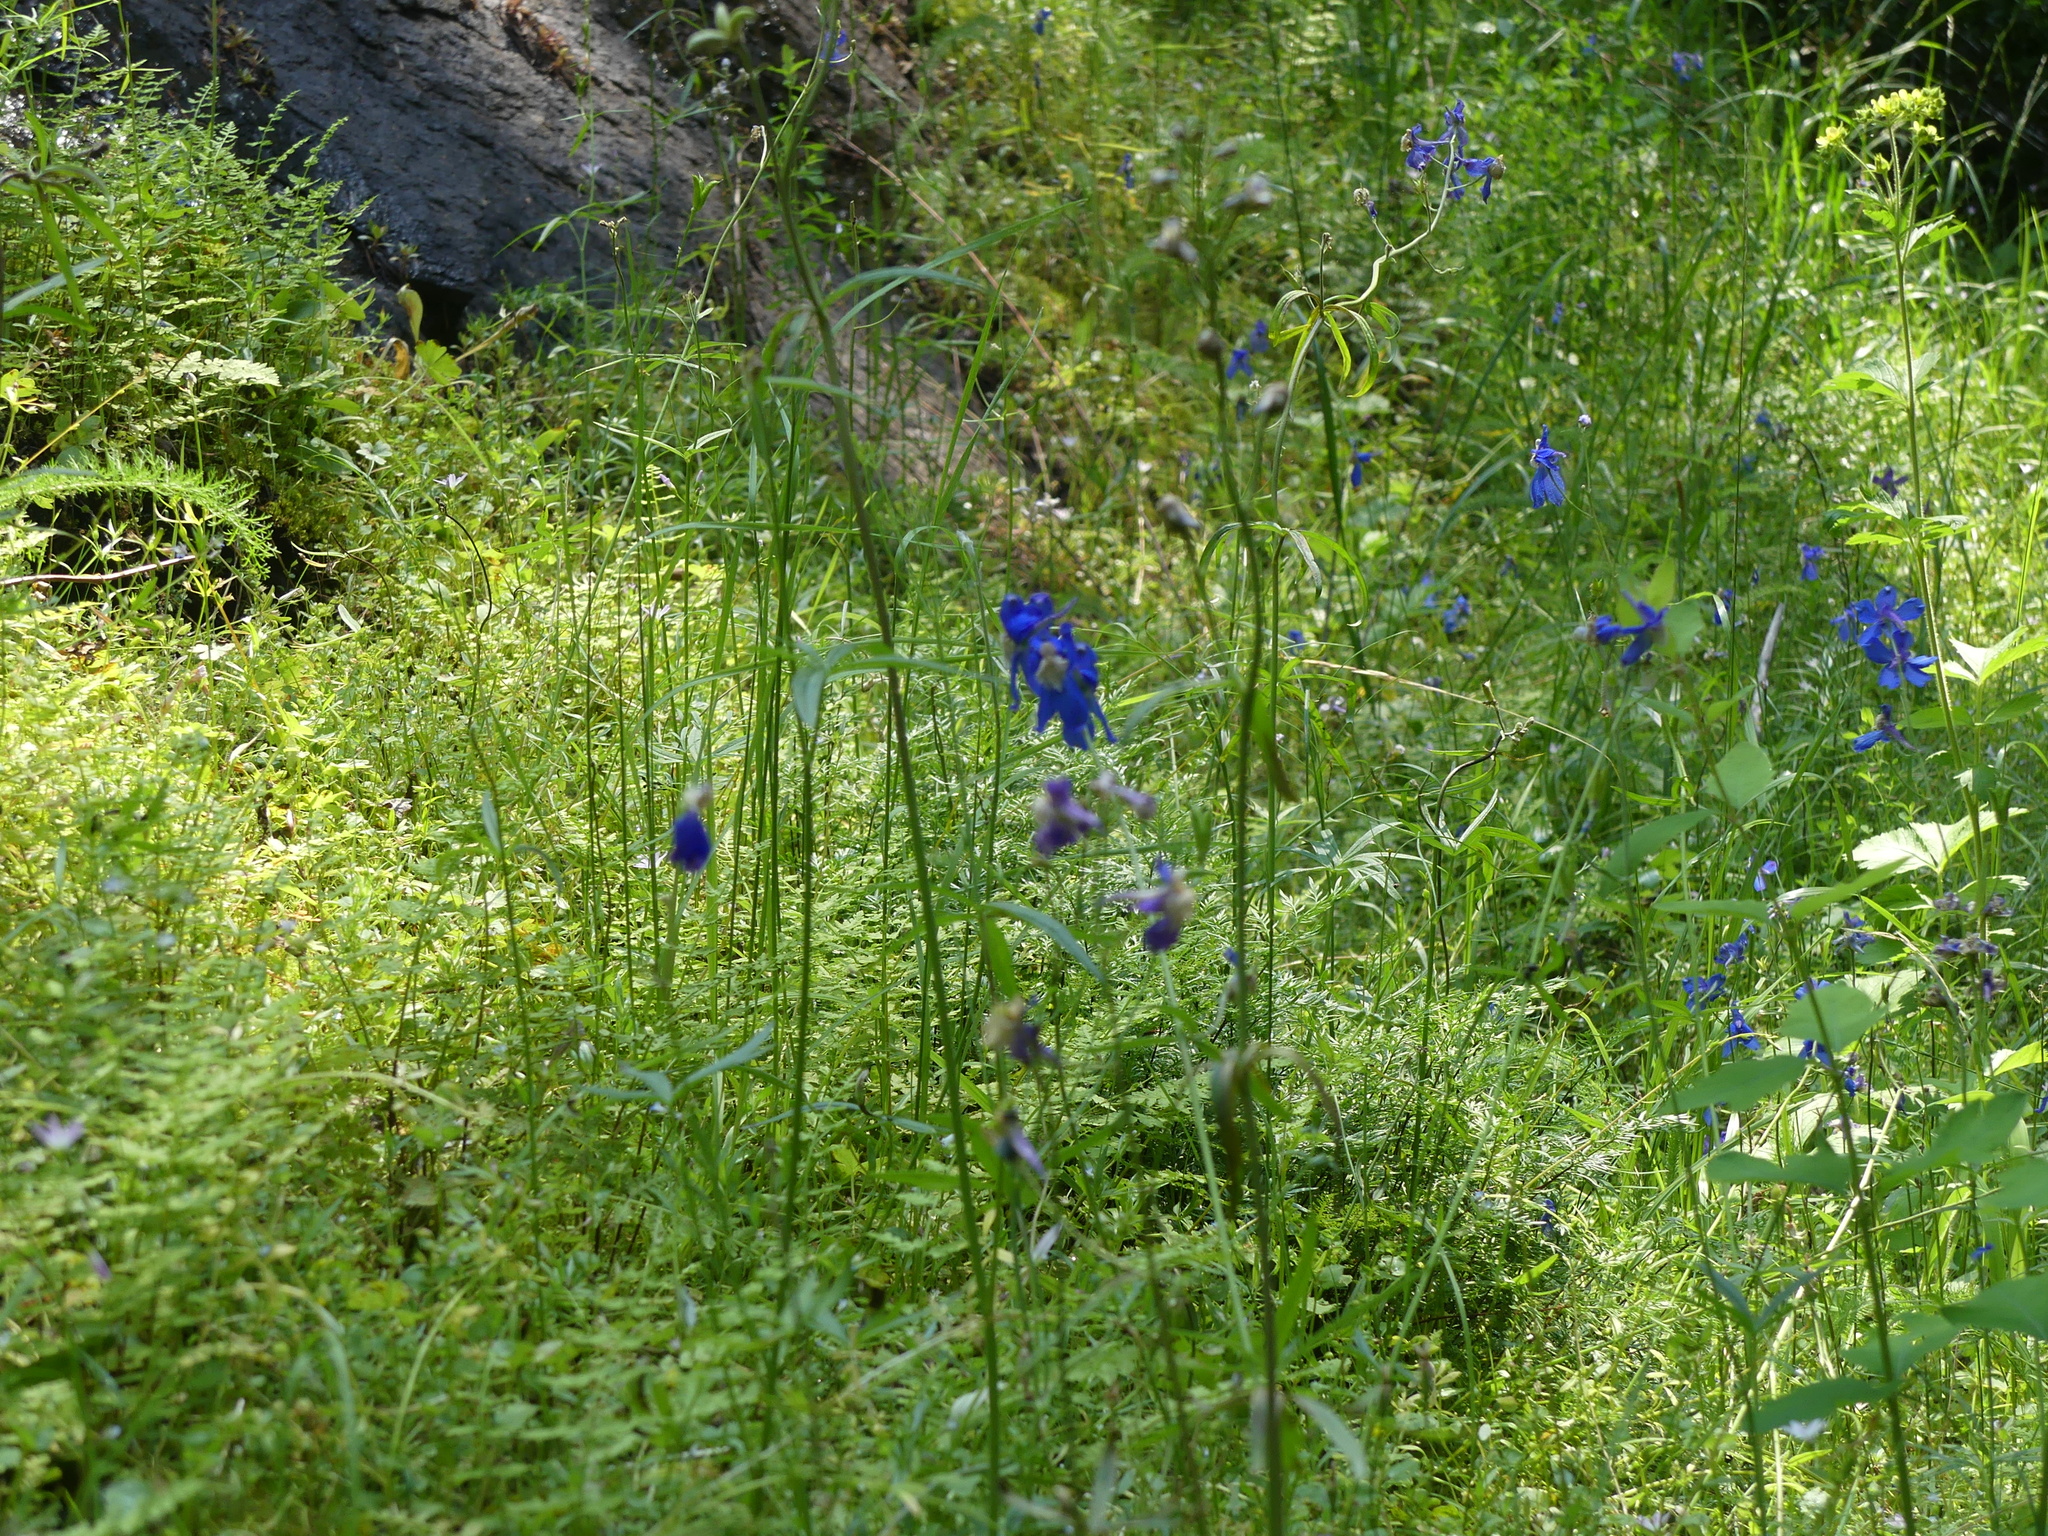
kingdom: Plantae
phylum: Tracheophyta
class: Magnoliopsida
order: Ranunculales
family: Ranunculaceae
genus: Delphinium
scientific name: Delphinium sutherlandii
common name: Sutherland's larkspur
